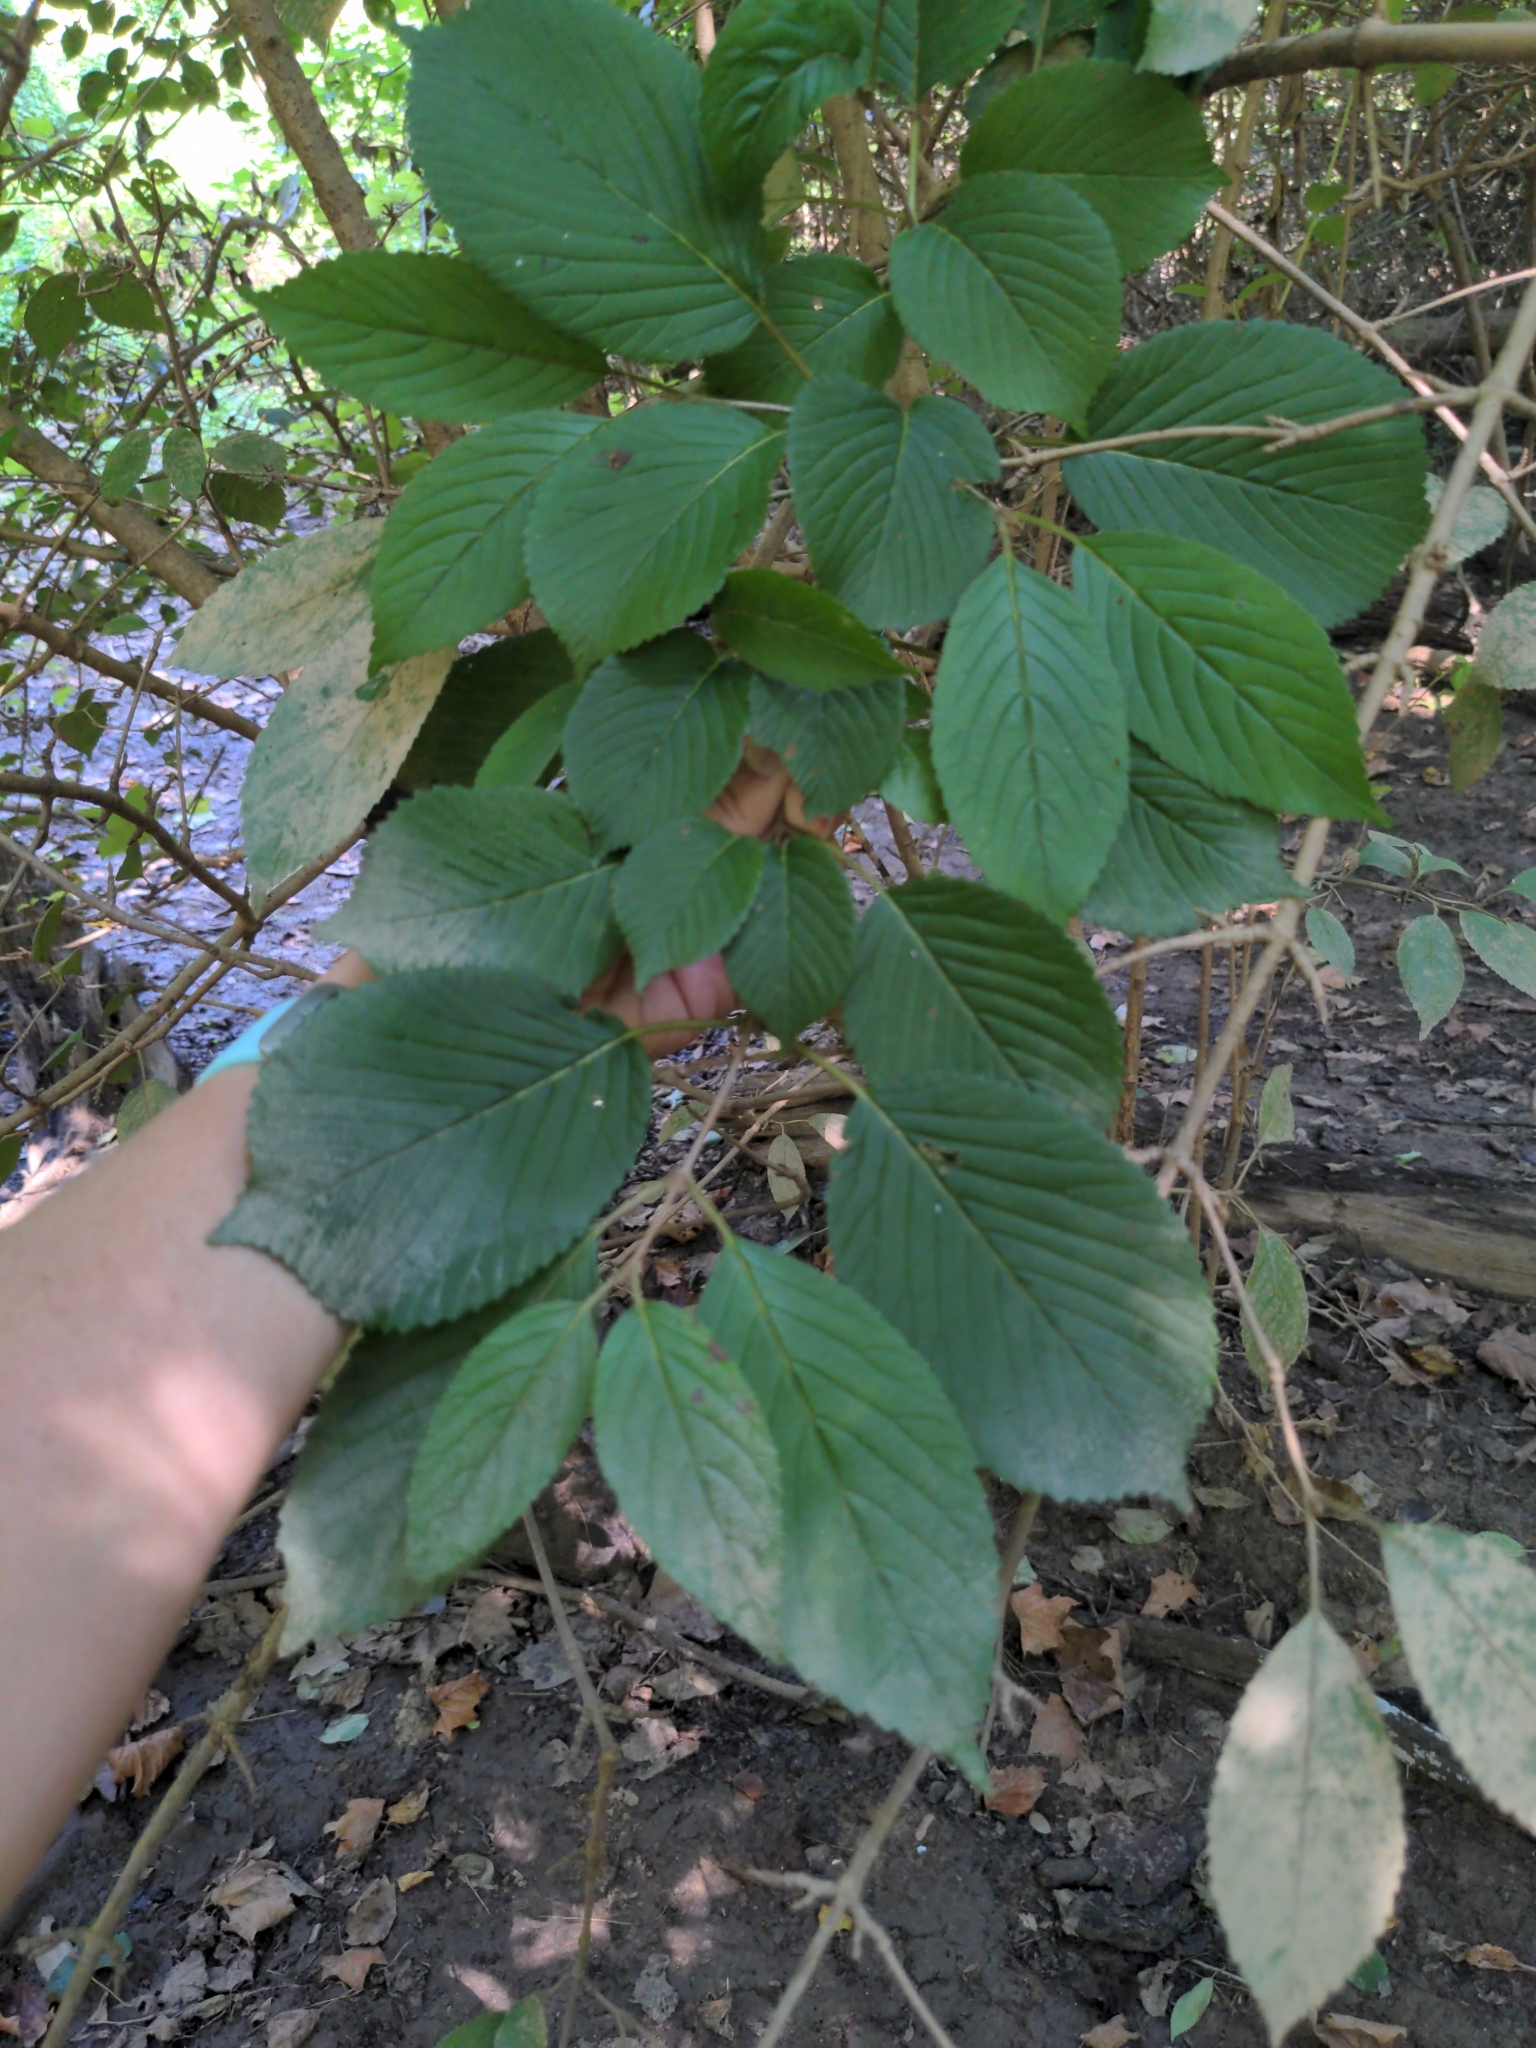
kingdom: Plantae
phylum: Tracheophyta
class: Magnoliopsida
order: Dipsacales
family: Viburnaceae
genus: Viburnum
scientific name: Viburnum plicatum
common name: Japanese snowball
